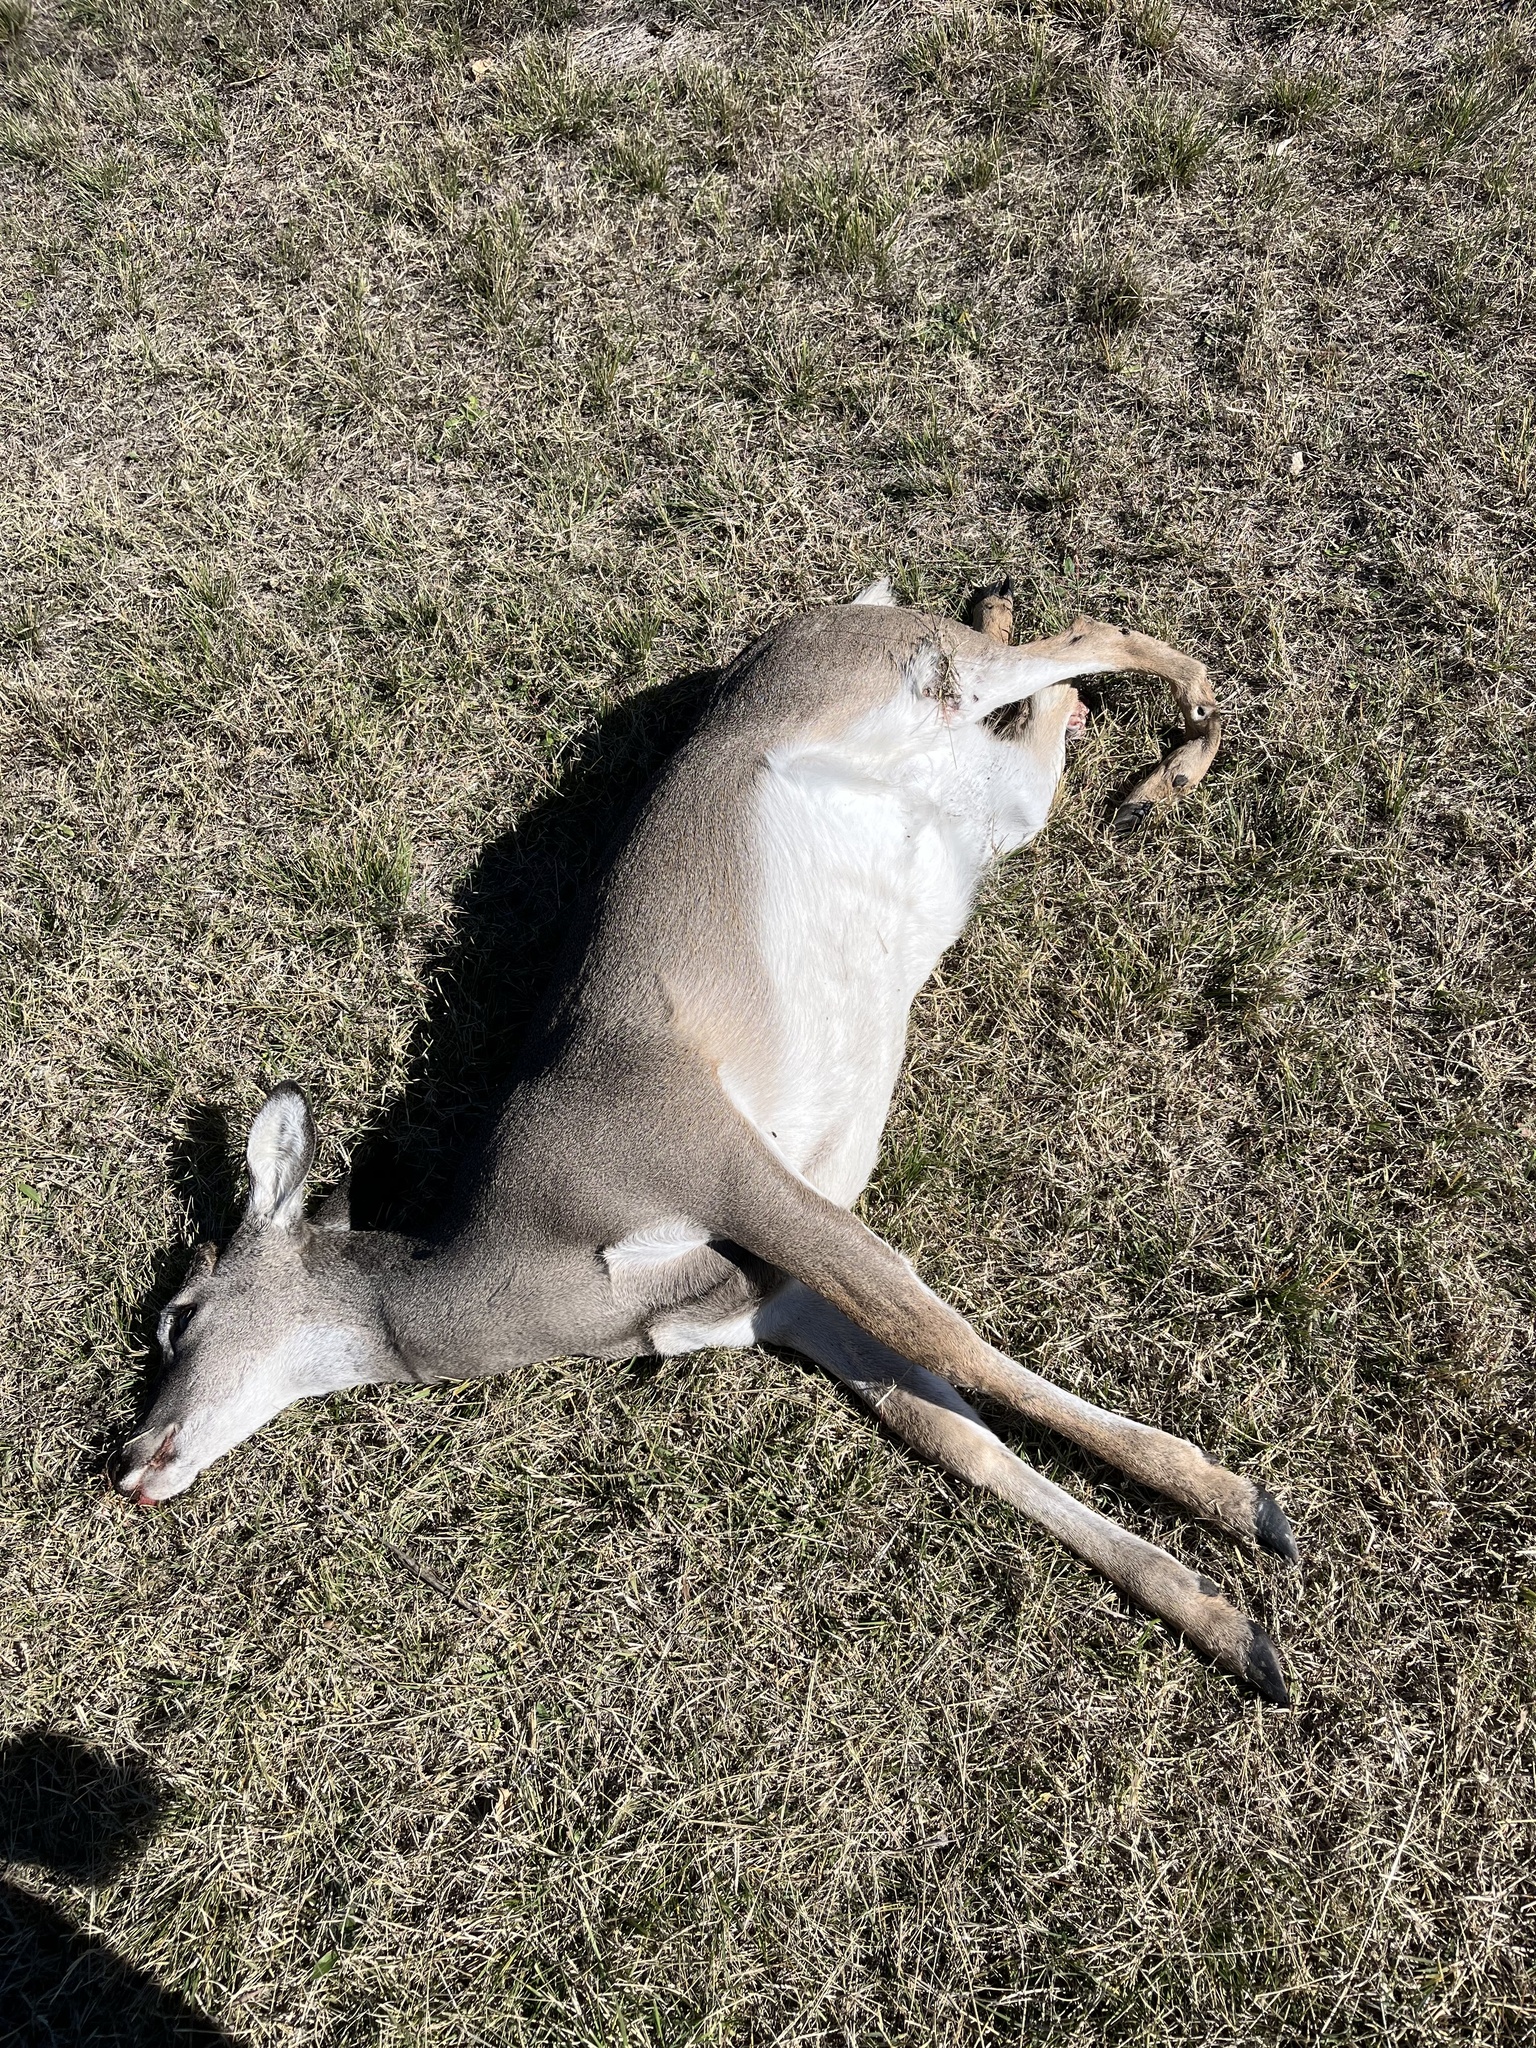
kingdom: Animalia
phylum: Chordata
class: Mammalia
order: Artiodactyla
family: Cervidae
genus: Odocoileus
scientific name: Odocoileus virginianus
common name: White-tailed deer
